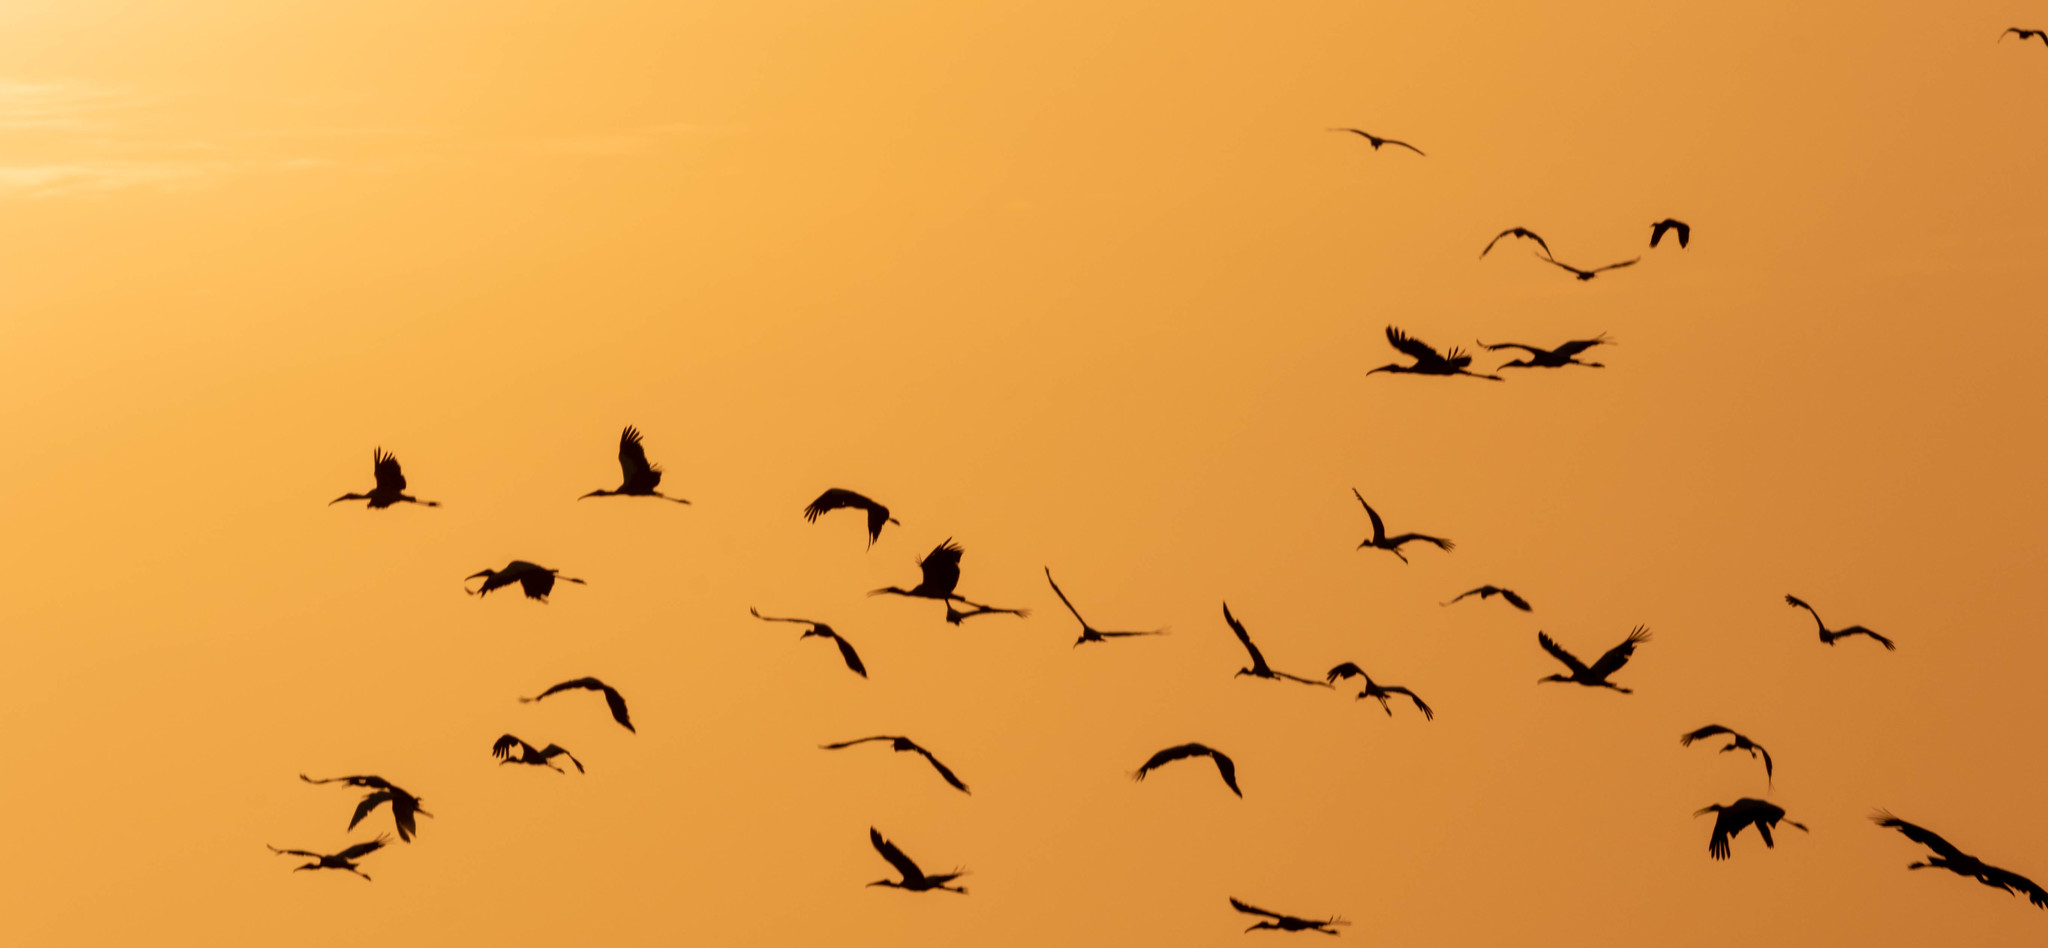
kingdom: Animalia
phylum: Chordata
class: Aves
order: Ciconiiformes
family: Ciconiidae
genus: Mycteria
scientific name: Mycteria americana
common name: Wood stork
